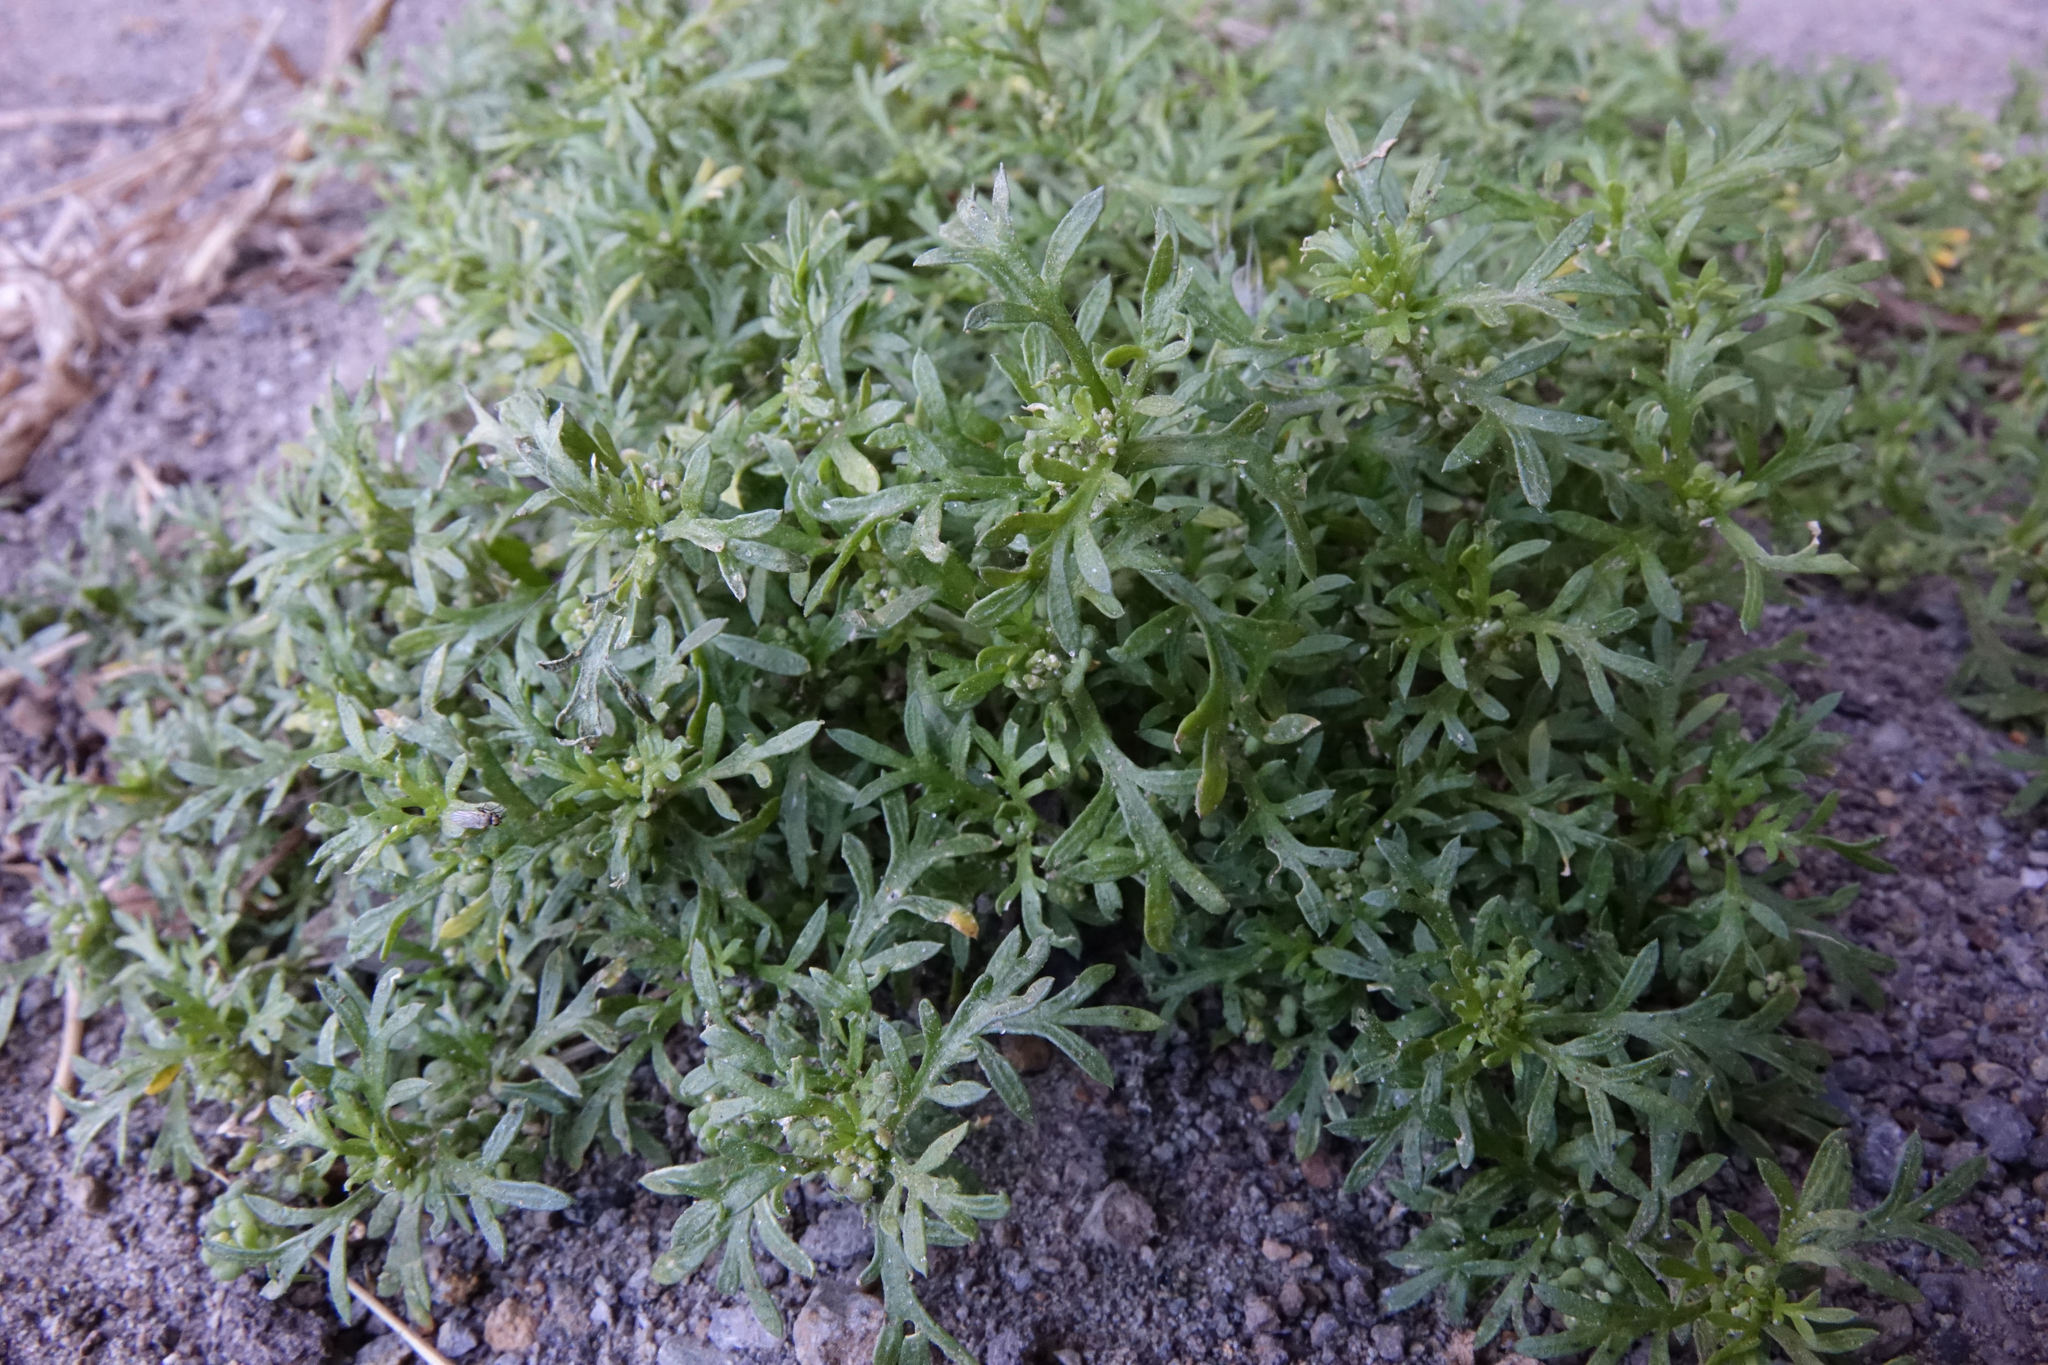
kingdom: Plantae
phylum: Tracheophyta
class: Magnoliopsida
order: Brassicales
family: Brassicaceae
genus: Lepidium
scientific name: Lepidium didymum
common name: Lesser swinecress
